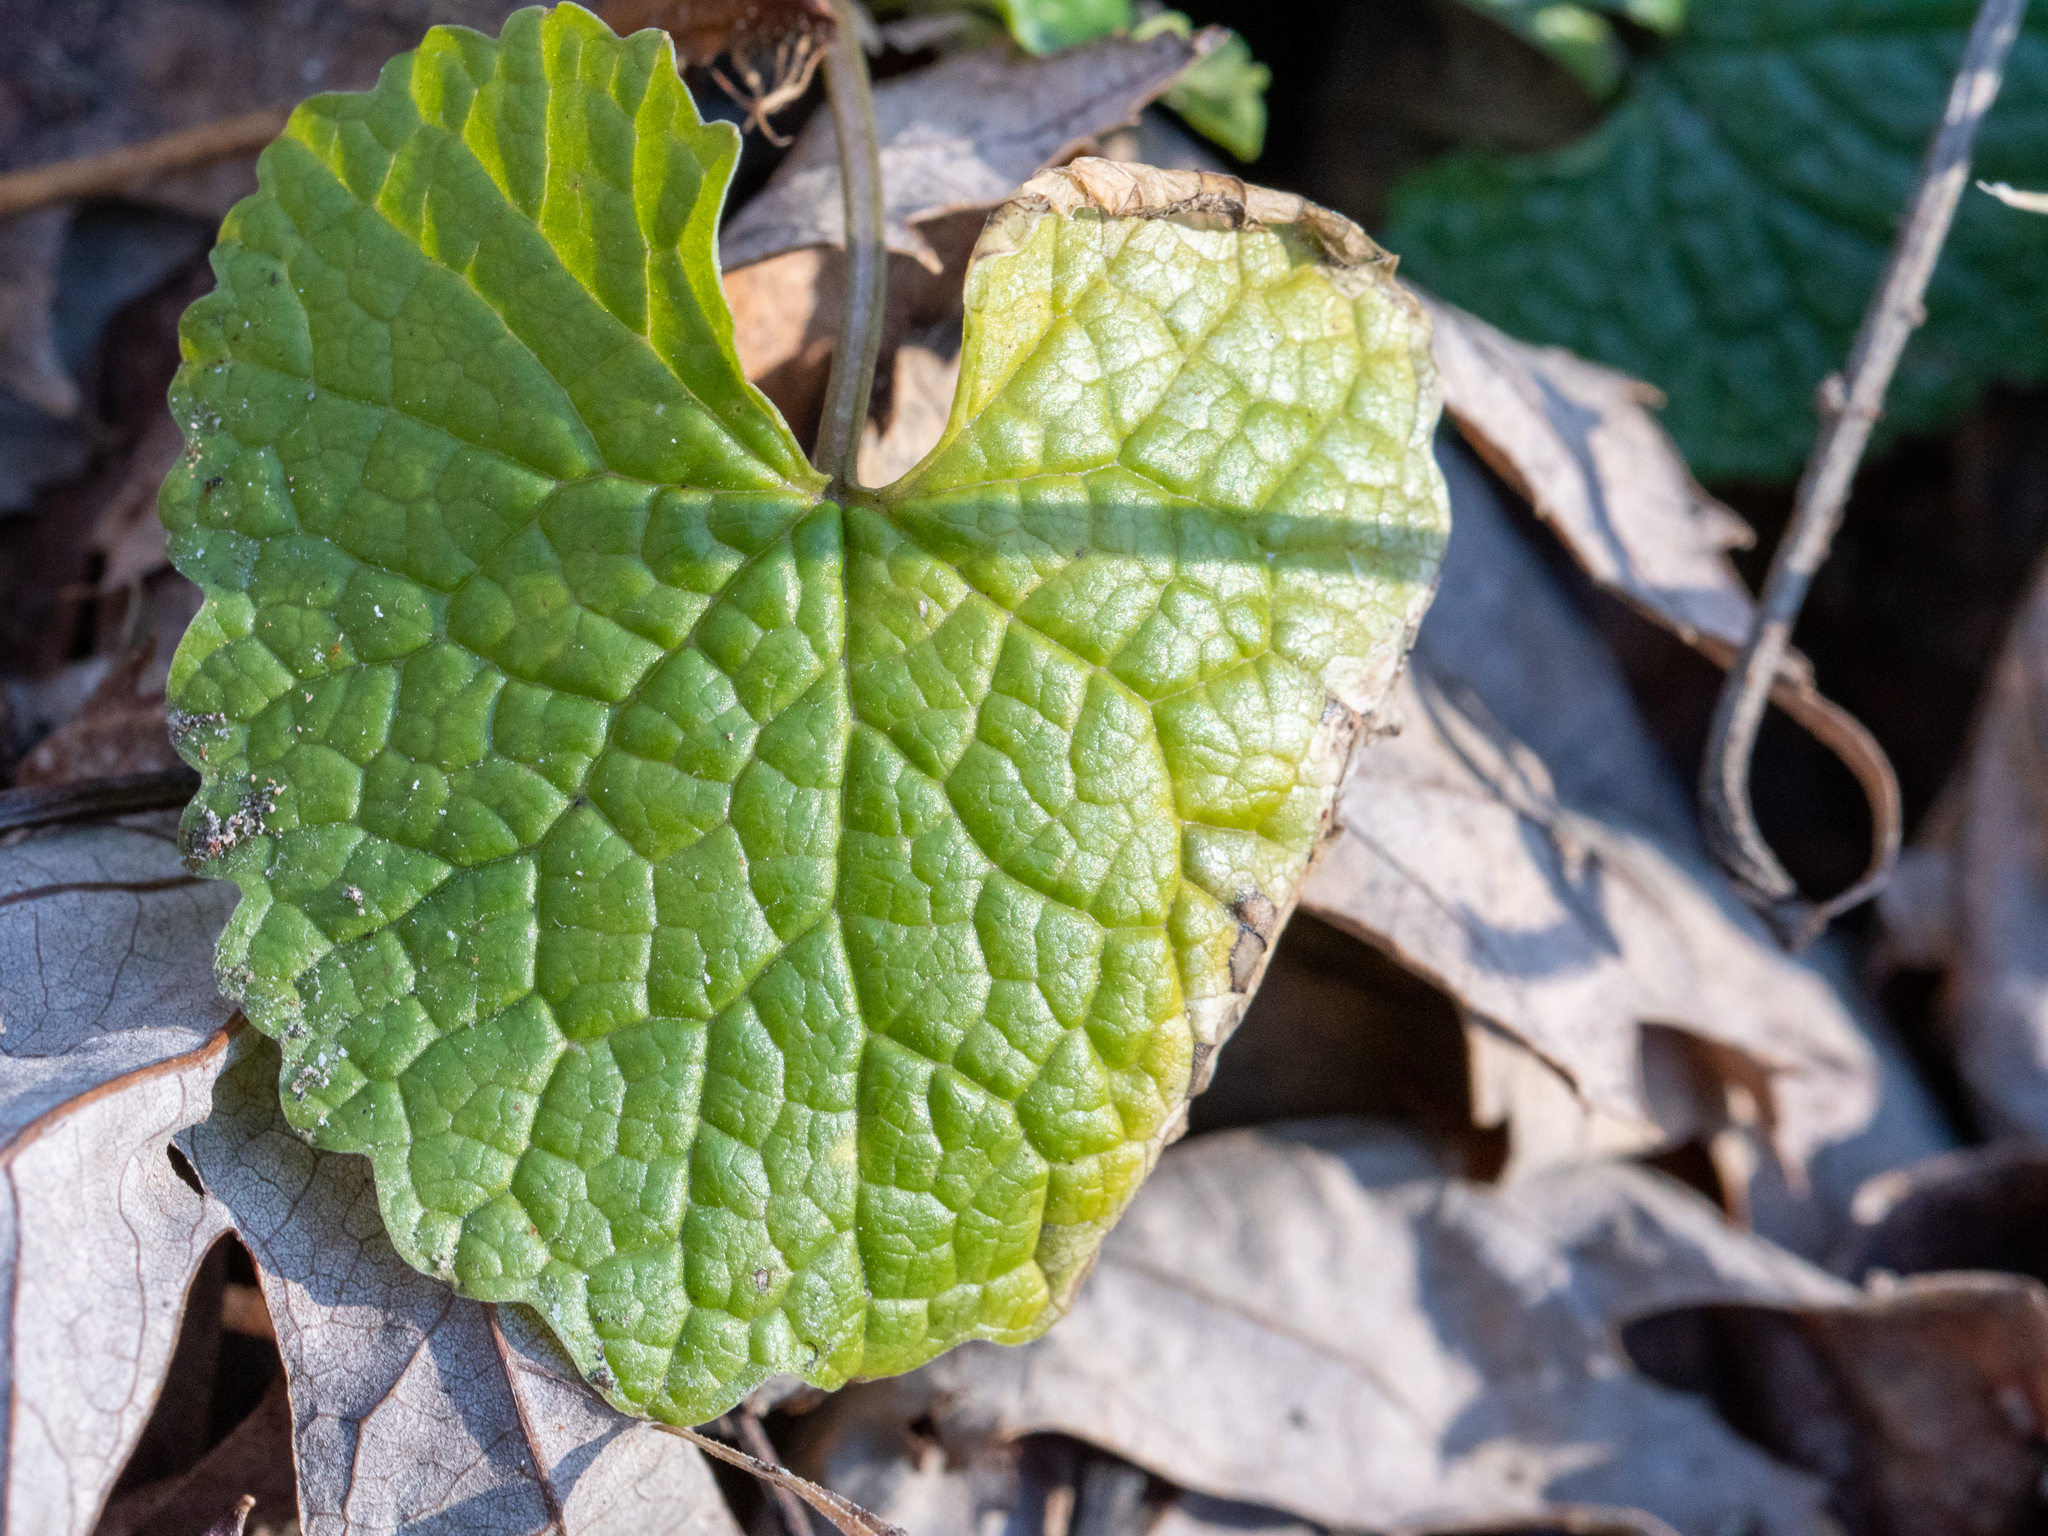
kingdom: Plantae
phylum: Tracheophyta
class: Magnoliopsida
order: Brassicales
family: Brassicaceae
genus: Alliaria
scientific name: Alliaria petiolata
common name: Garlic mustard
